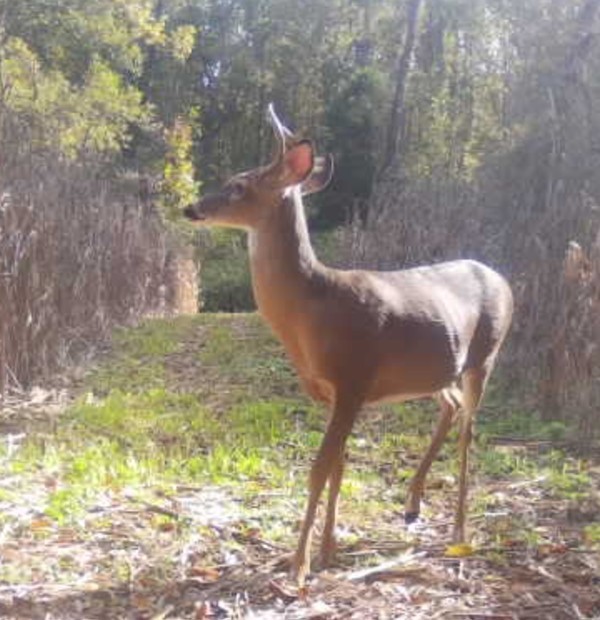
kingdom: Animalia
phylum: Chordata
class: Mammalia
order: Artiodactyla
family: Cervidae
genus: Odocoileus
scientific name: Odocoileus virginianus
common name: White-tailed deer
